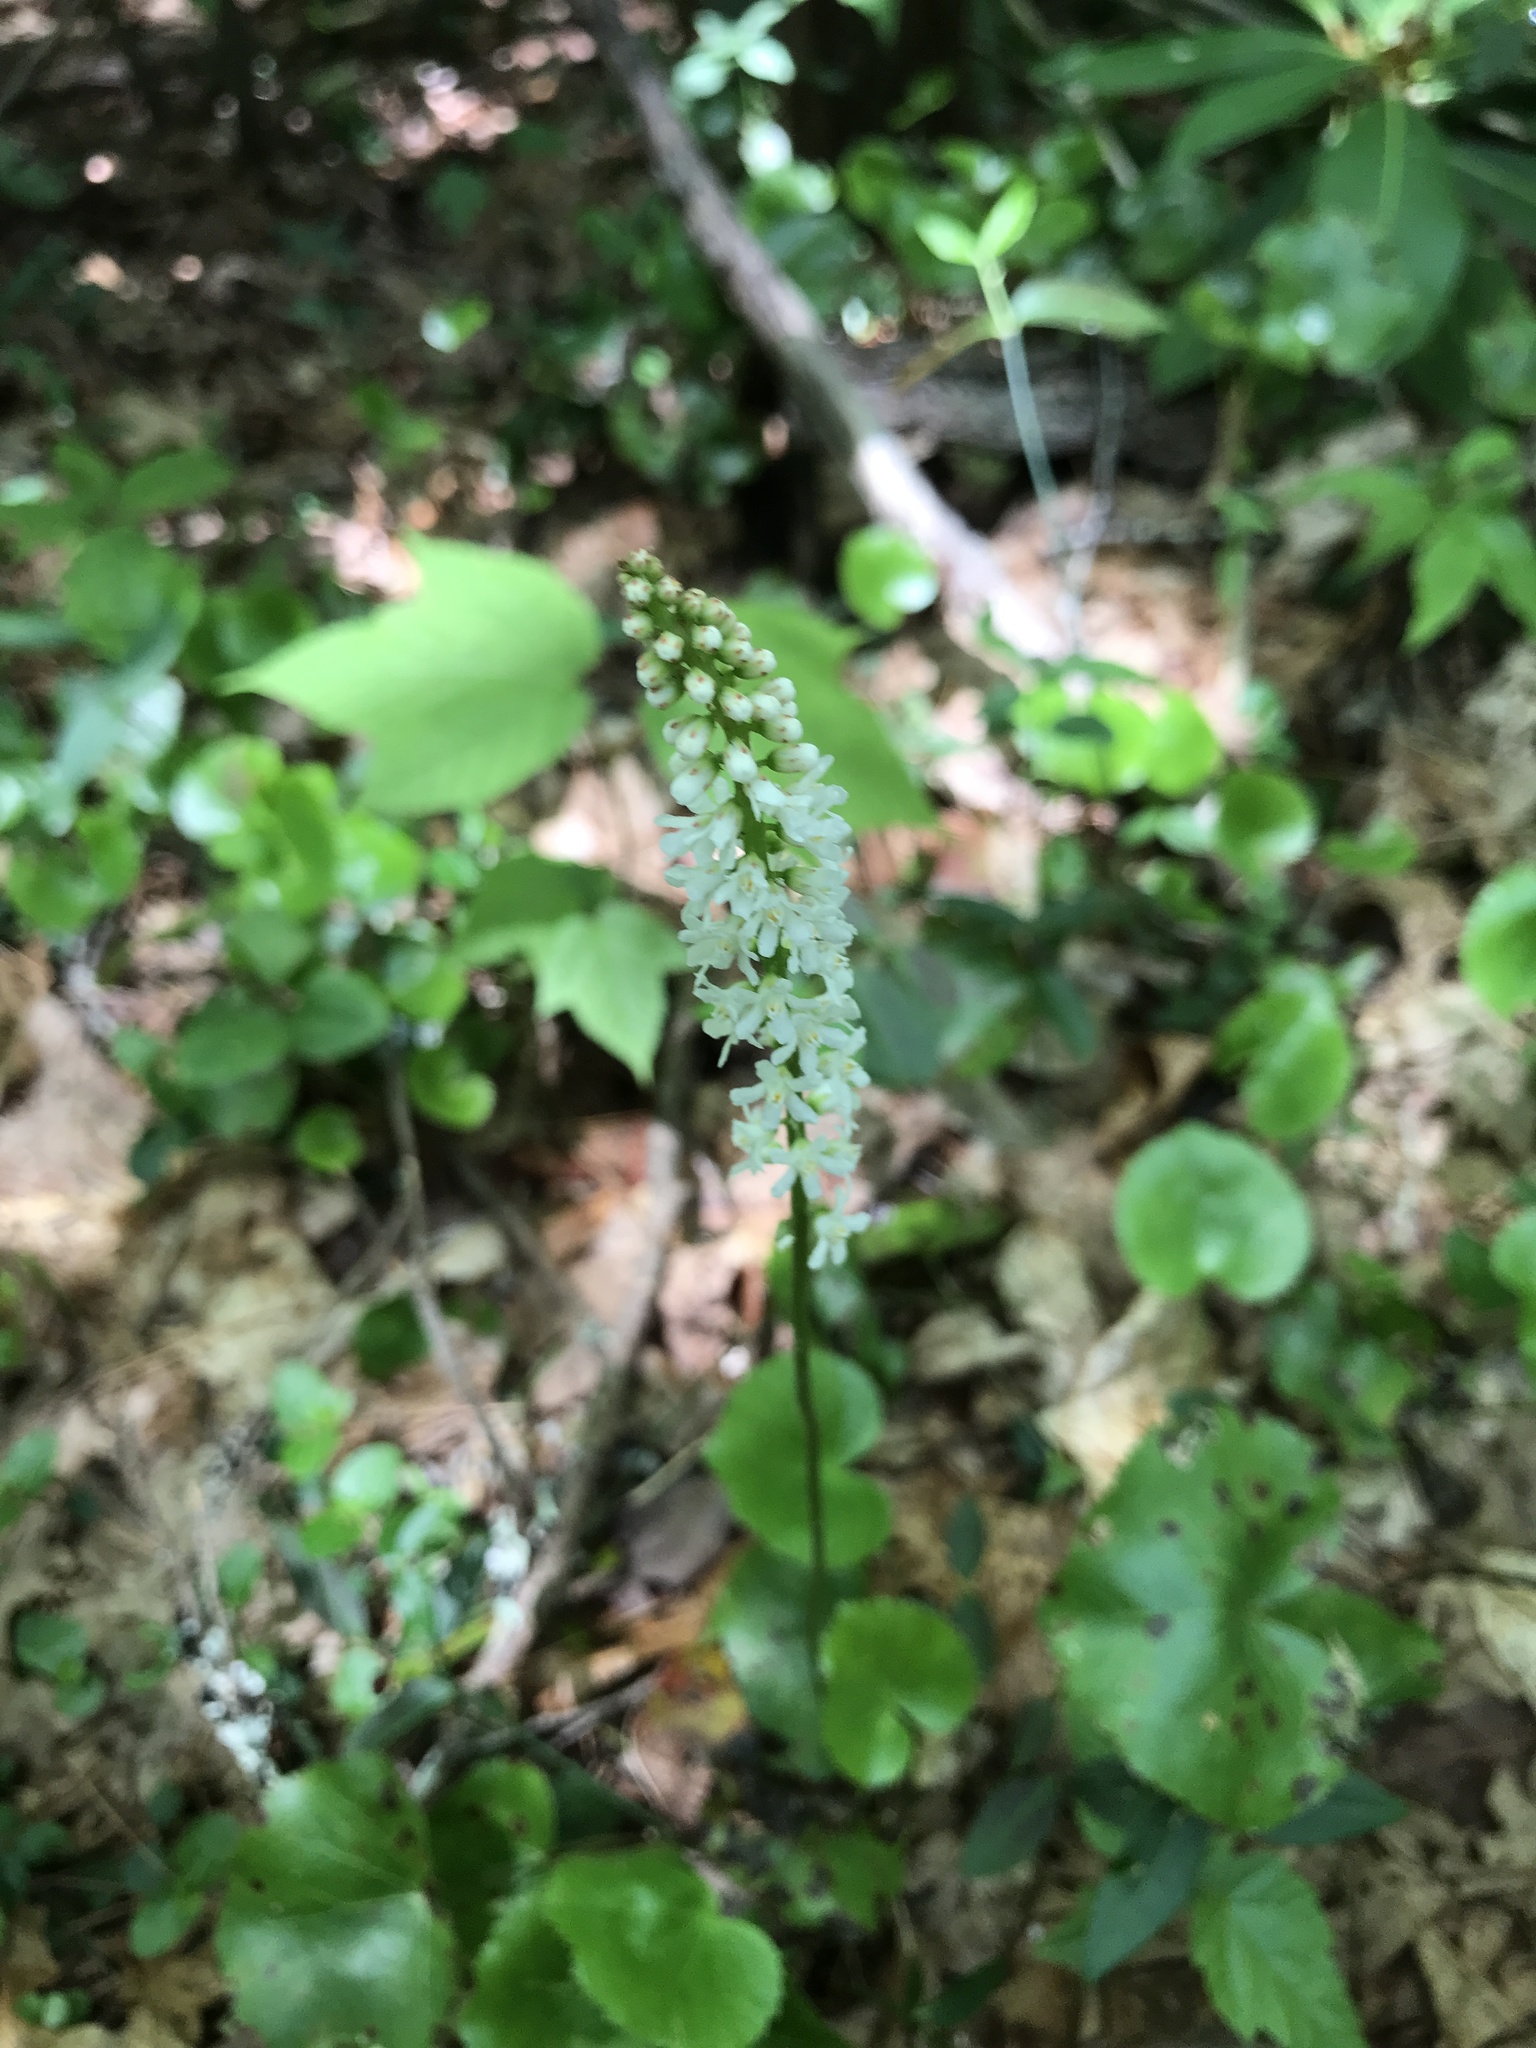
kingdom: Plantae
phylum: Tracheophyta
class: Magnoliopsida
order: Ericales
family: Diapensiaceae
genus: Galax
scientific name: Galax urceolata
